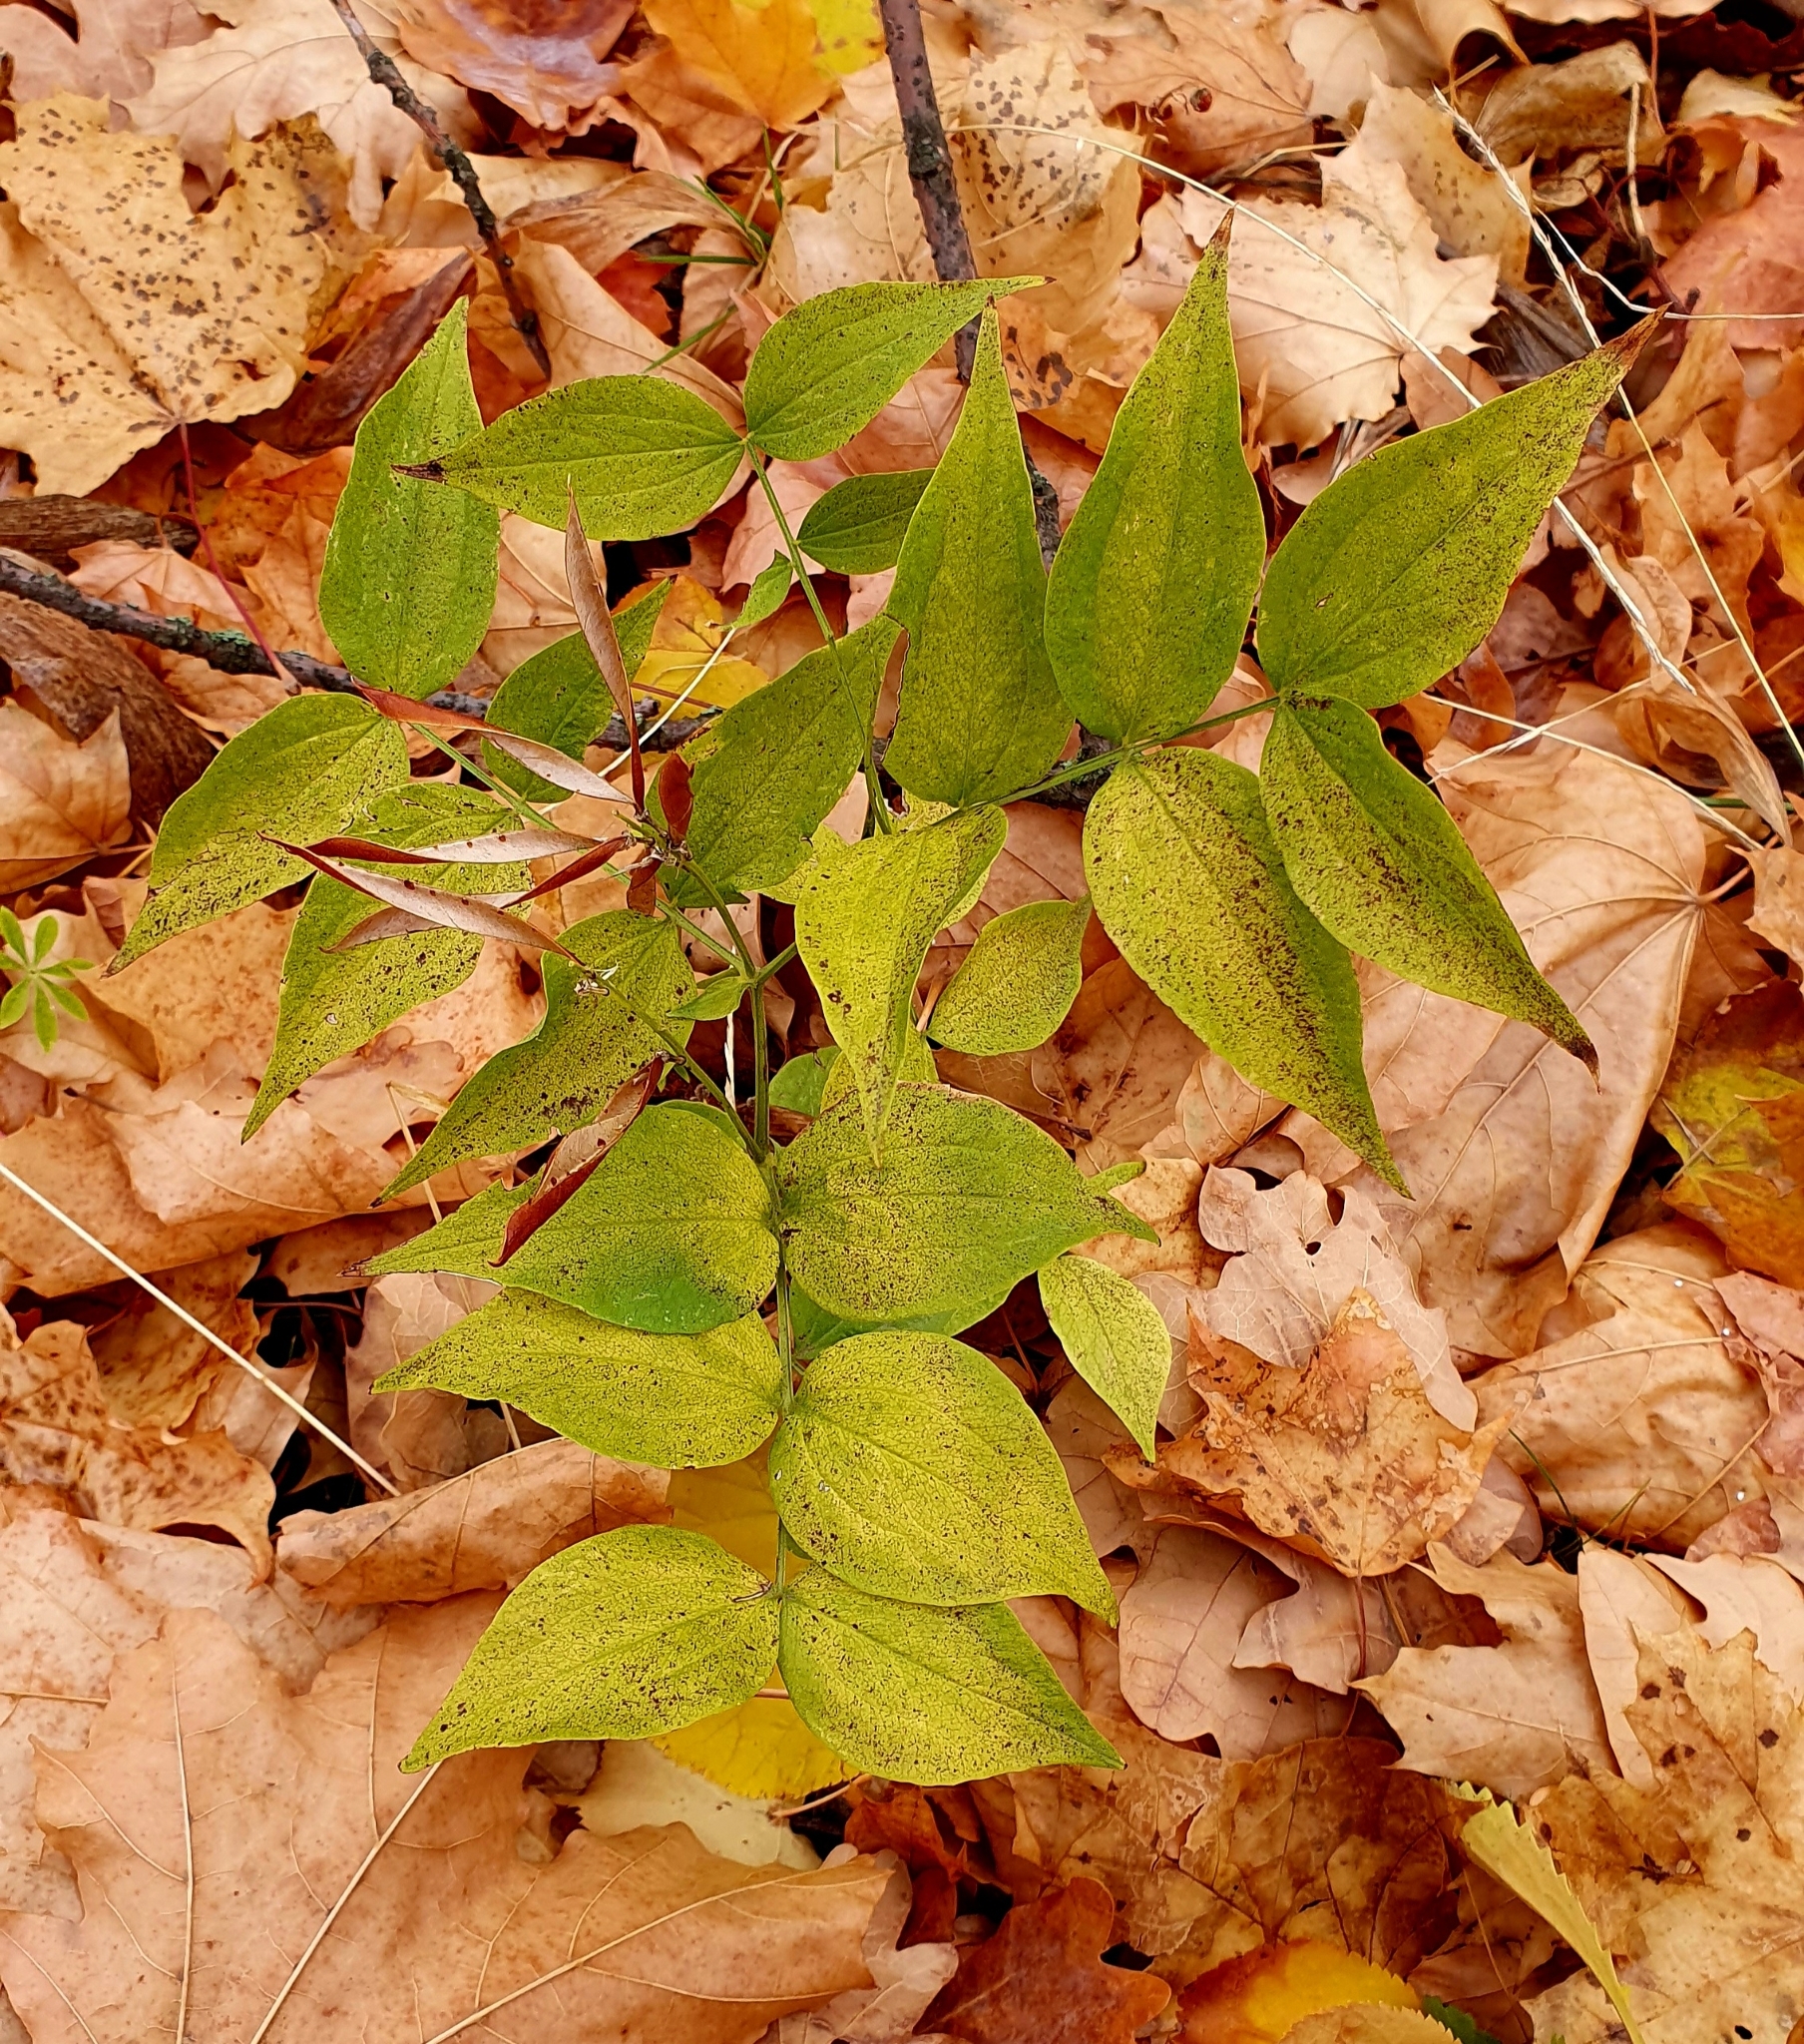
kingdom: Plantae
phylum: Tracheophyta
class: Magnoliopsida
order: Fabales
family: Fabaceae
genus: Lathyrus
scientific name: Lathyrus vernus
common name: Spring pea
